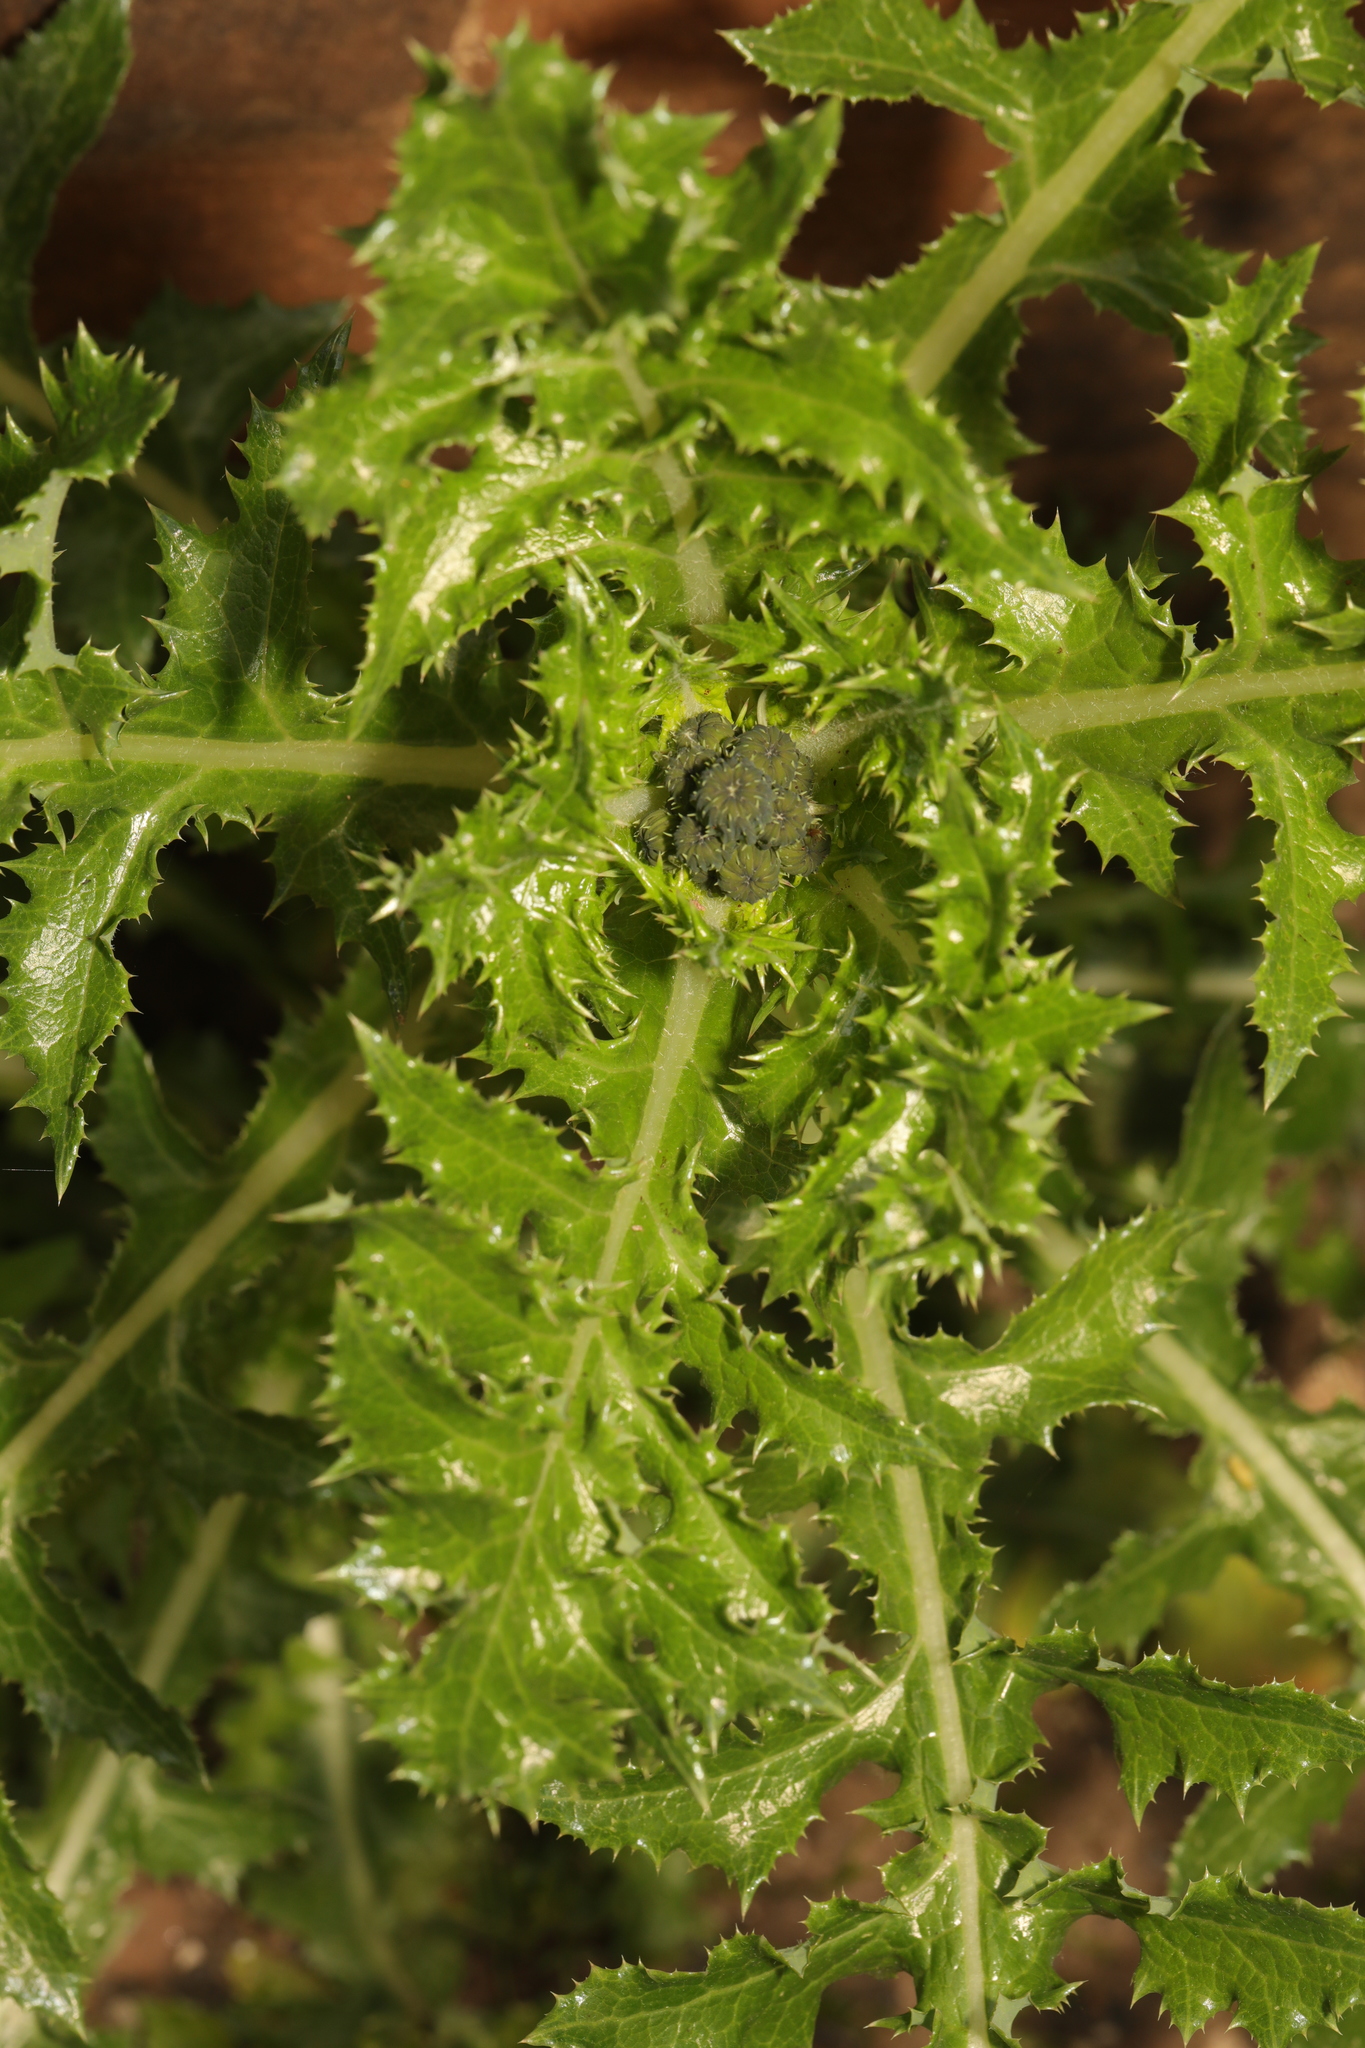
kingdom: Plantae
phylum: Tracheophyta
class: Magnoliopsida
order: Asterales
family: Asteraceae
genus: Sonchus
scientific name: Sonchus asper
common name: Prickly sow-thistle
